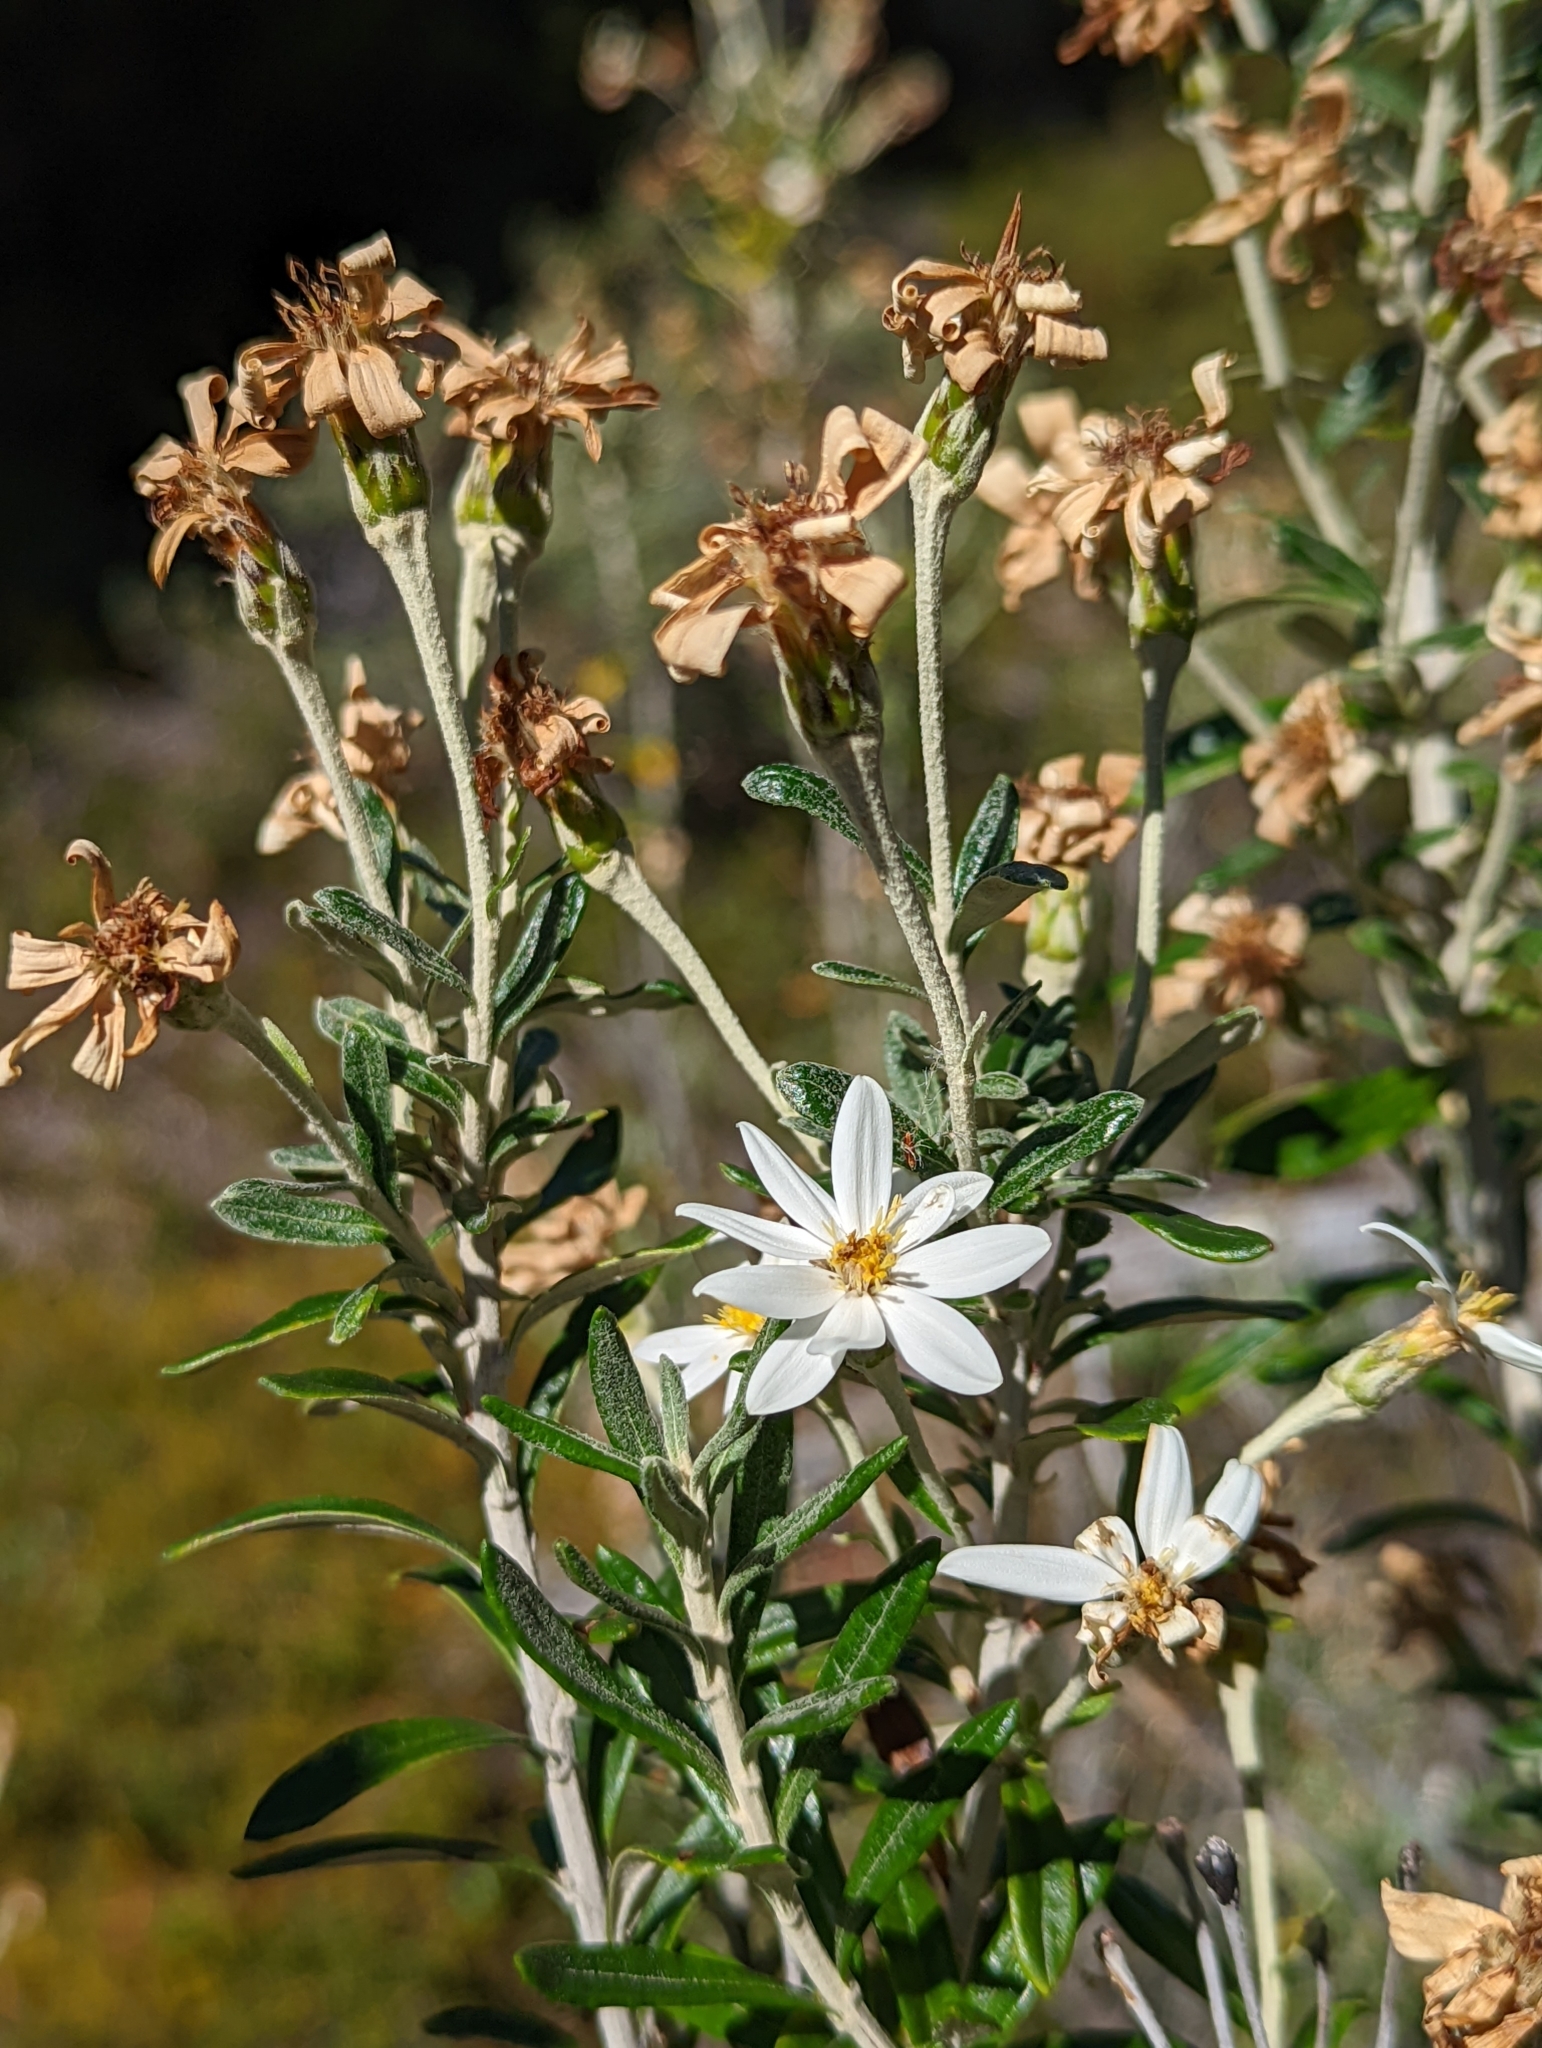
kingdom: Plantae
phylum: Tracheophyta
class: Magnoliopsida
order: Asterales
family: Asteraceae
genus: Chiliotrichum
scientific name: Chiliotrichum diffusum
